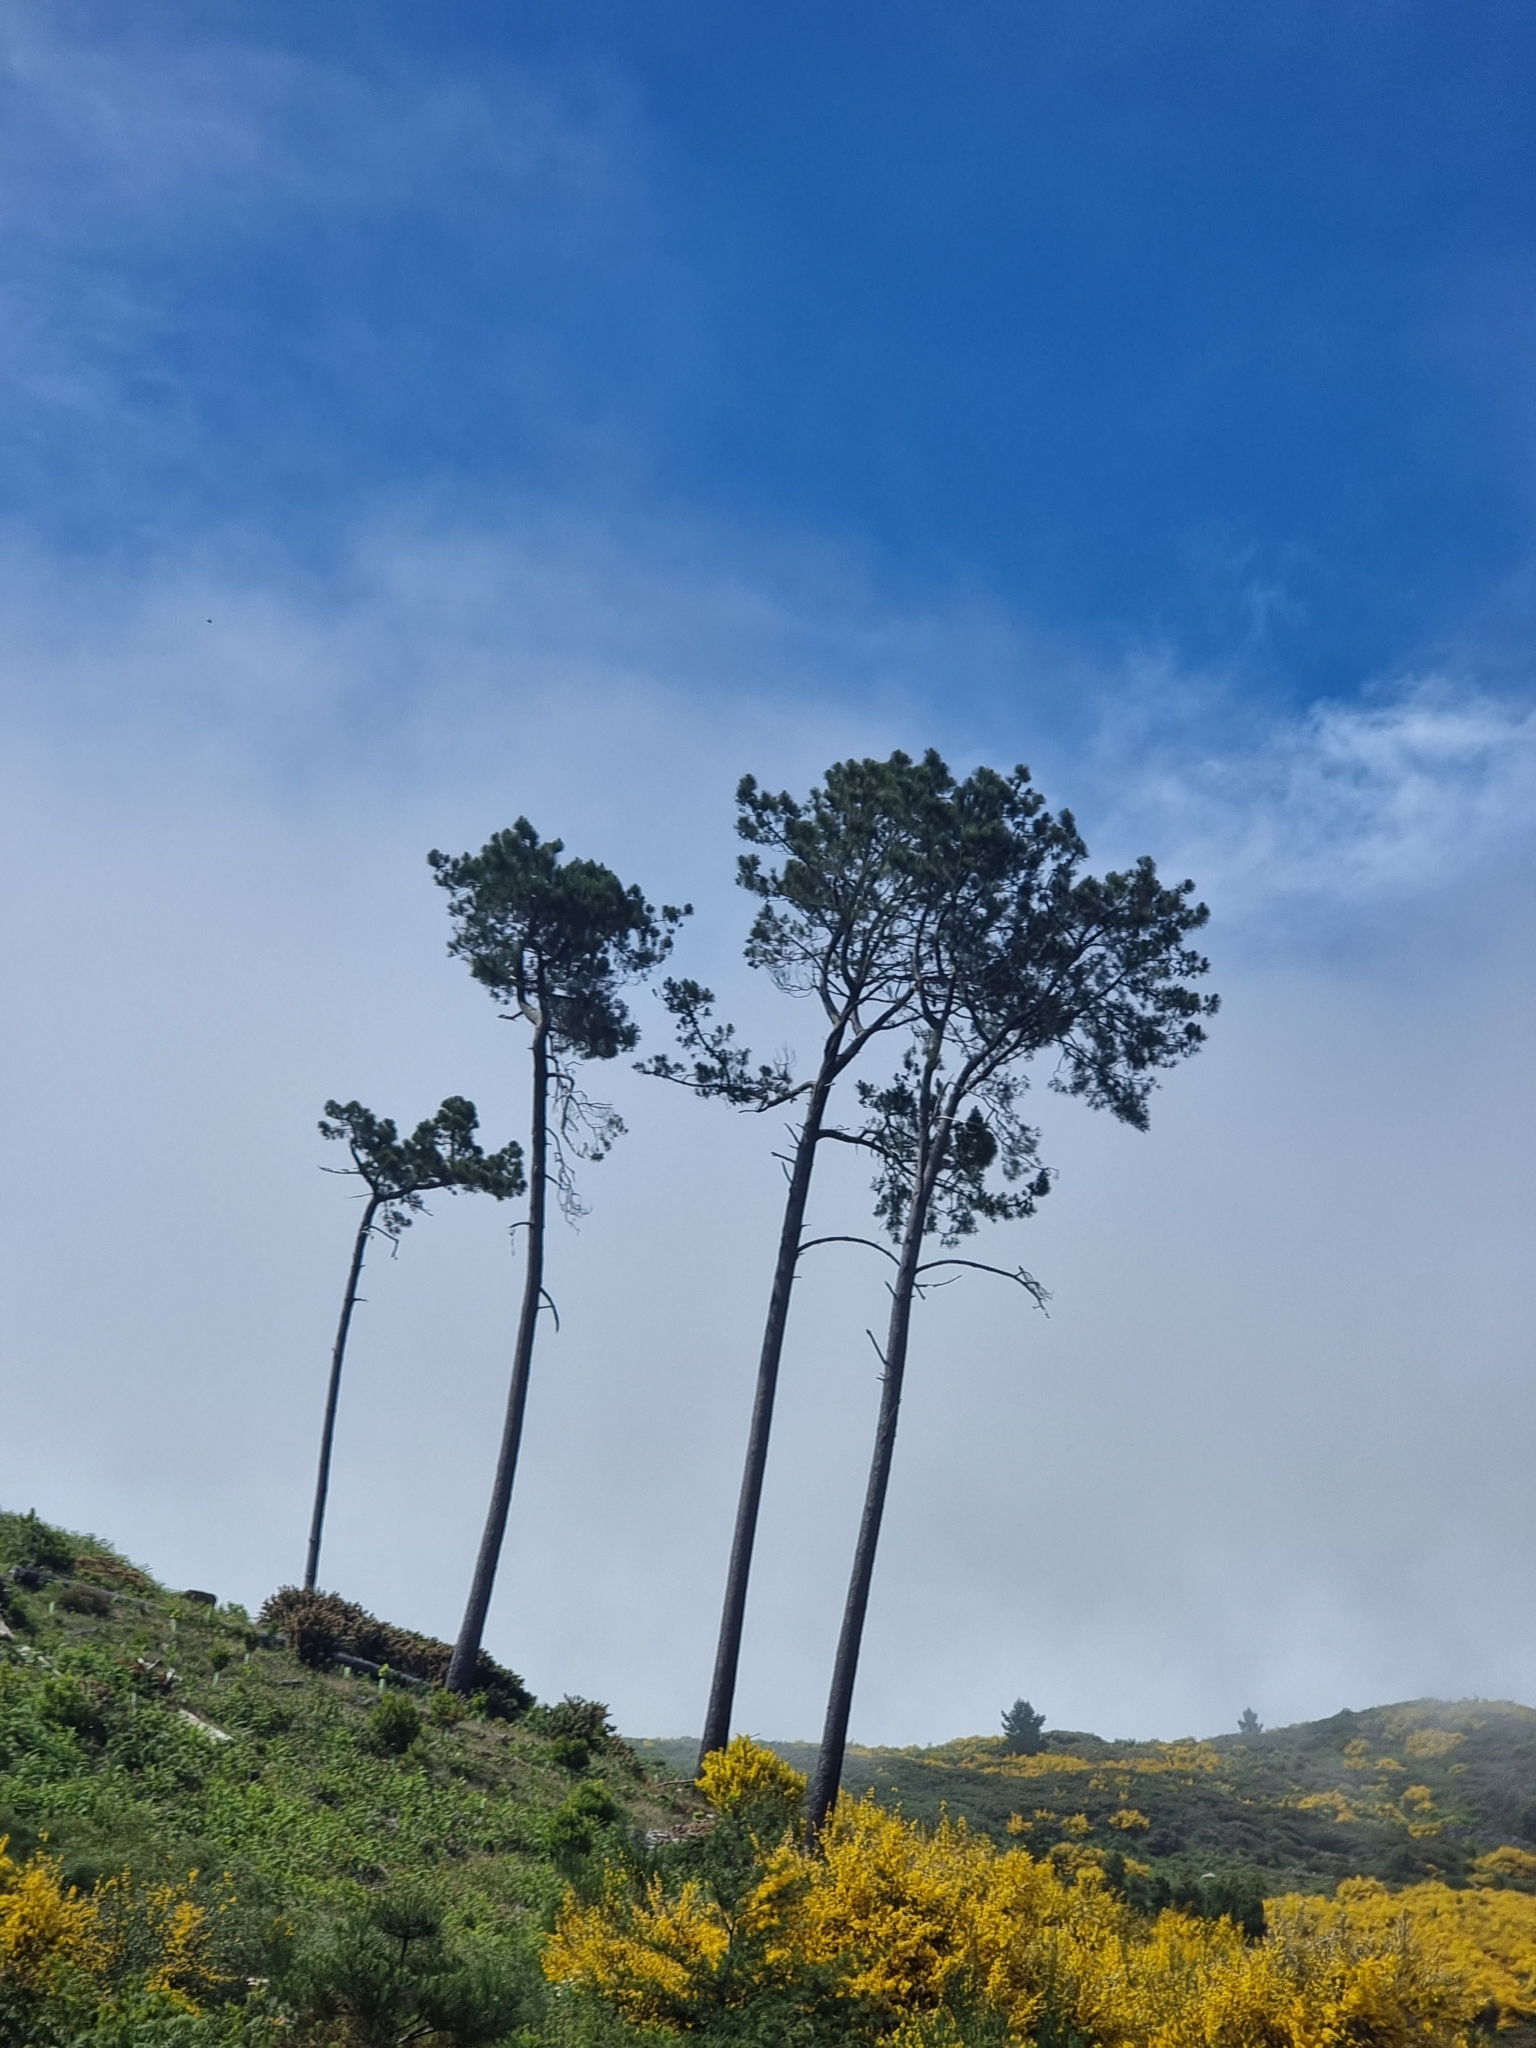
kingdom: Plantae
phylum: Tracheophyta
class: Pinopsida
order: Pinales
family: Pinaceae
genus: Pinus
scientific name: Pinus pinaster
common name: Maritime pine
